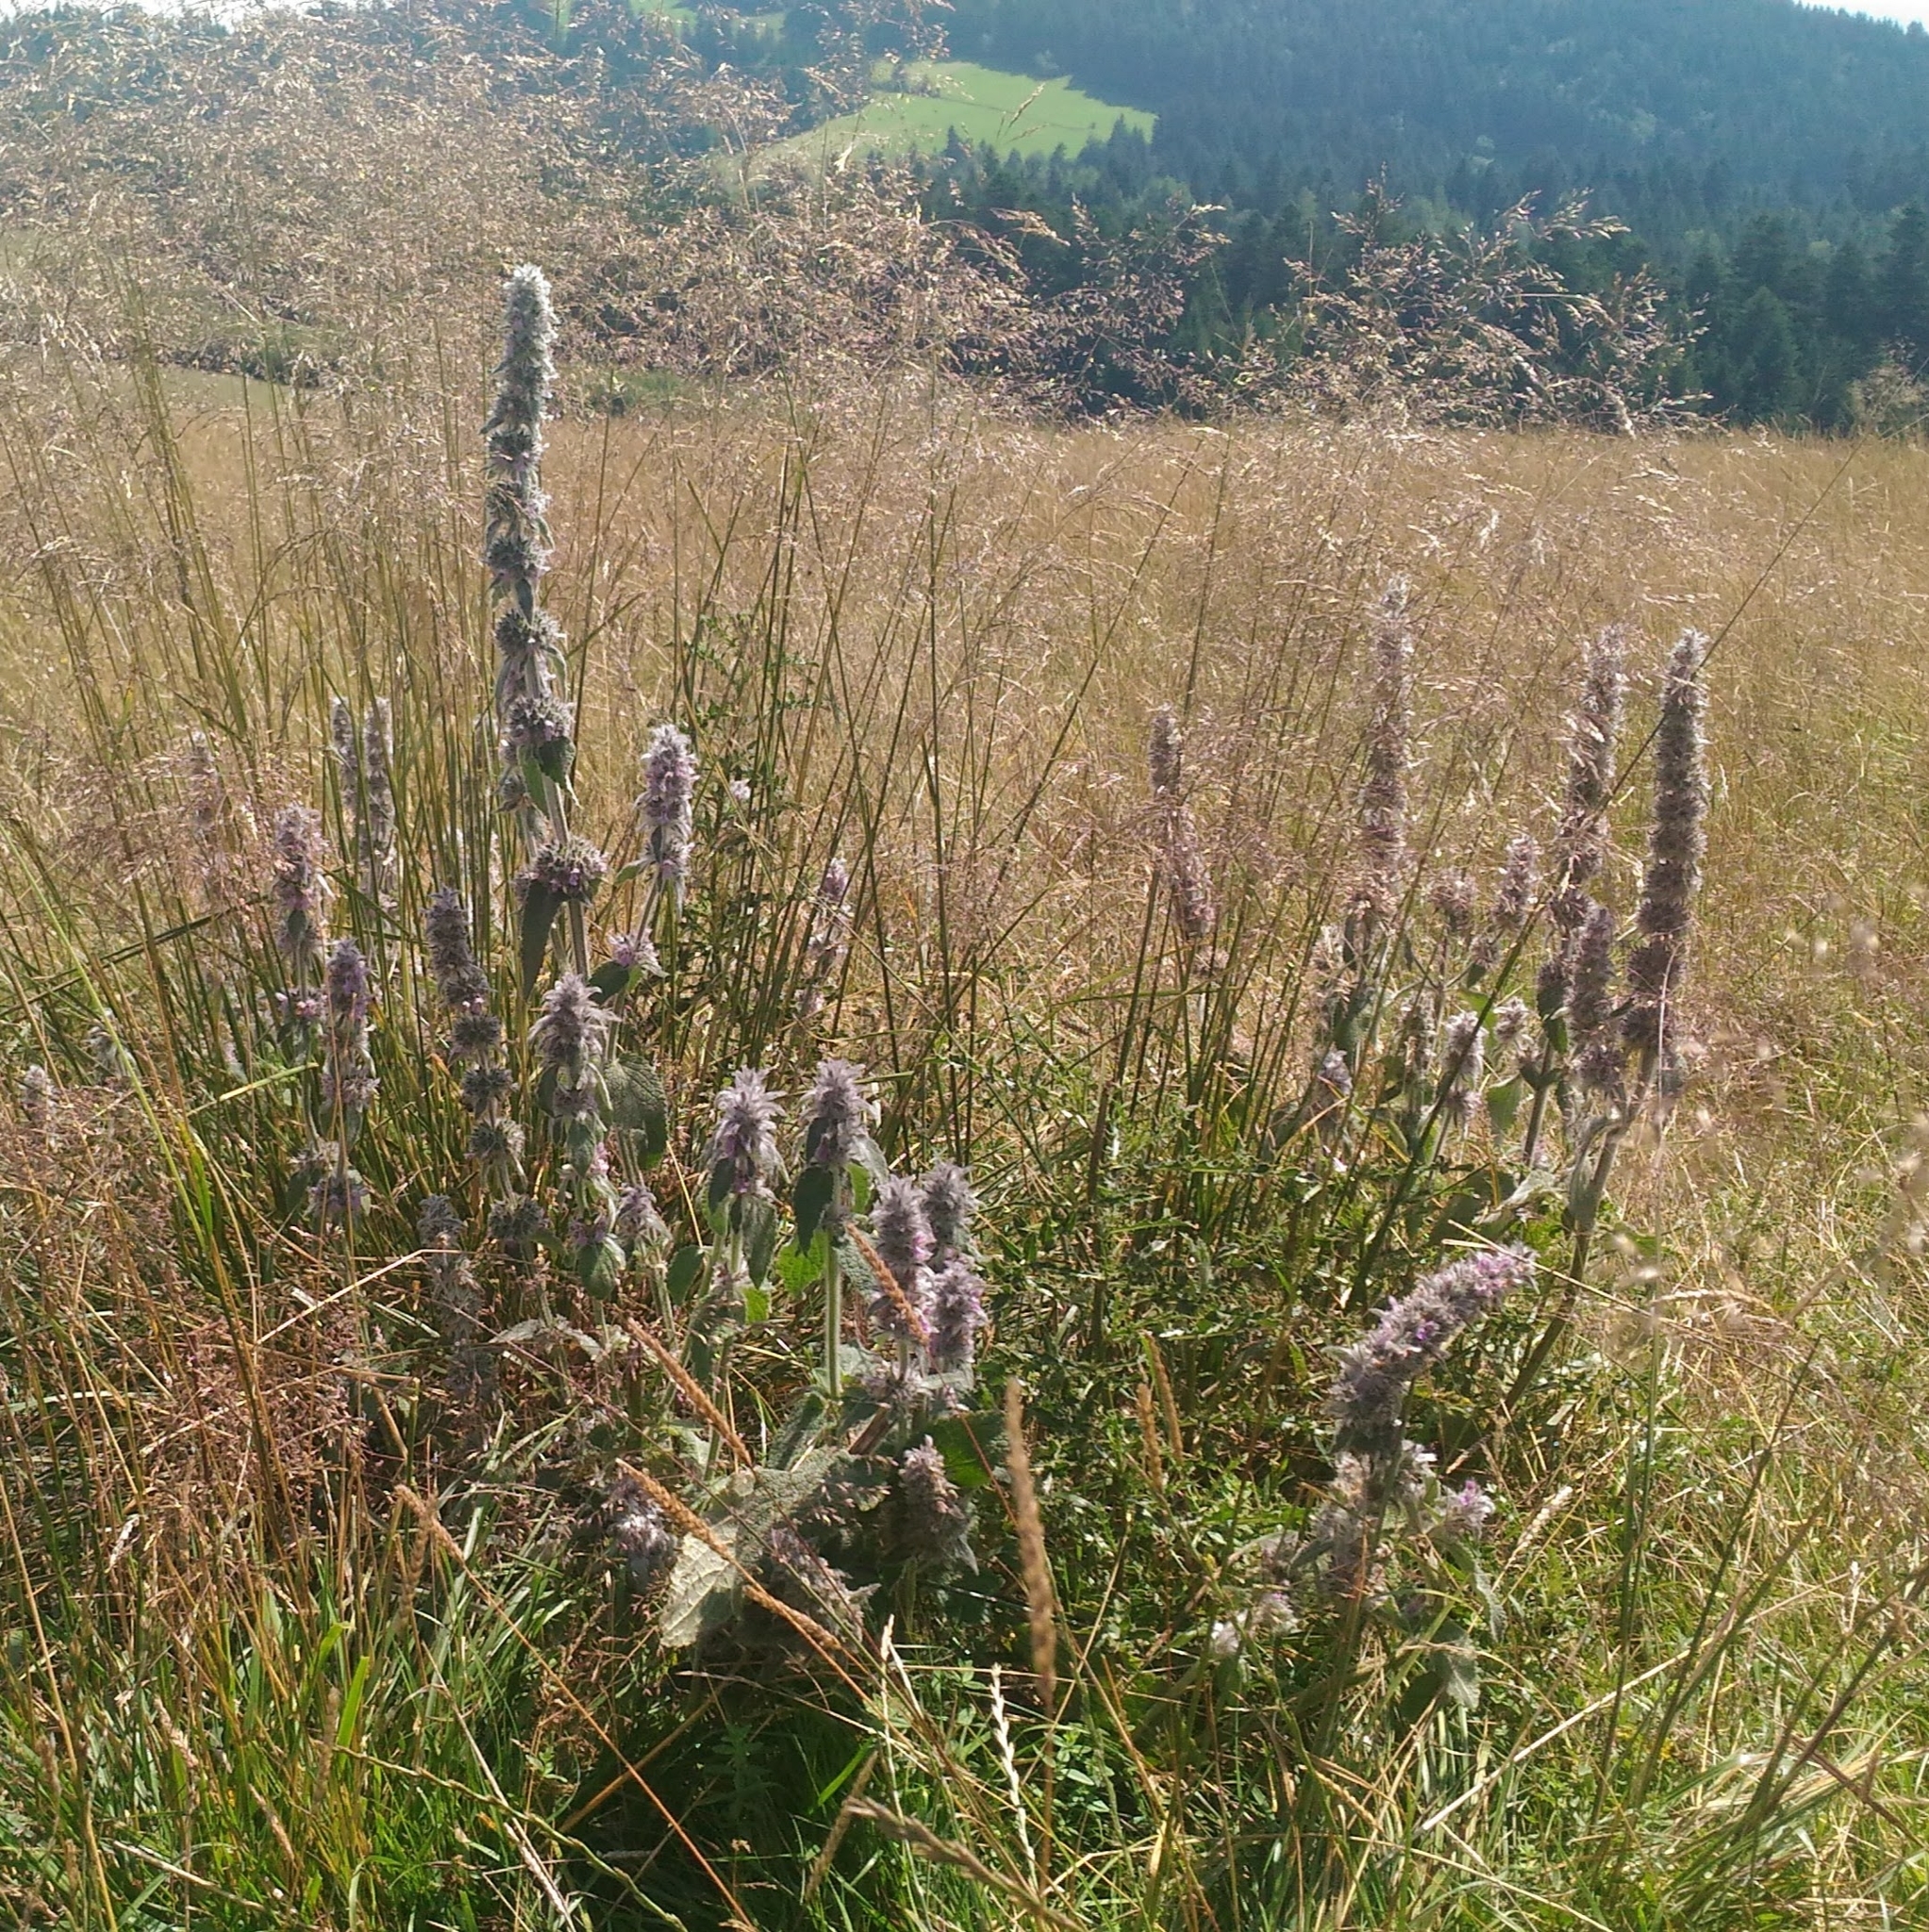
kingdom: Plantae
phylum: Tracheophyta
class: Magnoliopsida
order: Lamiales
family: Lamiaceae
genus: Stachys
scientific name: Stachys germanica
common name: Downy woundwort
